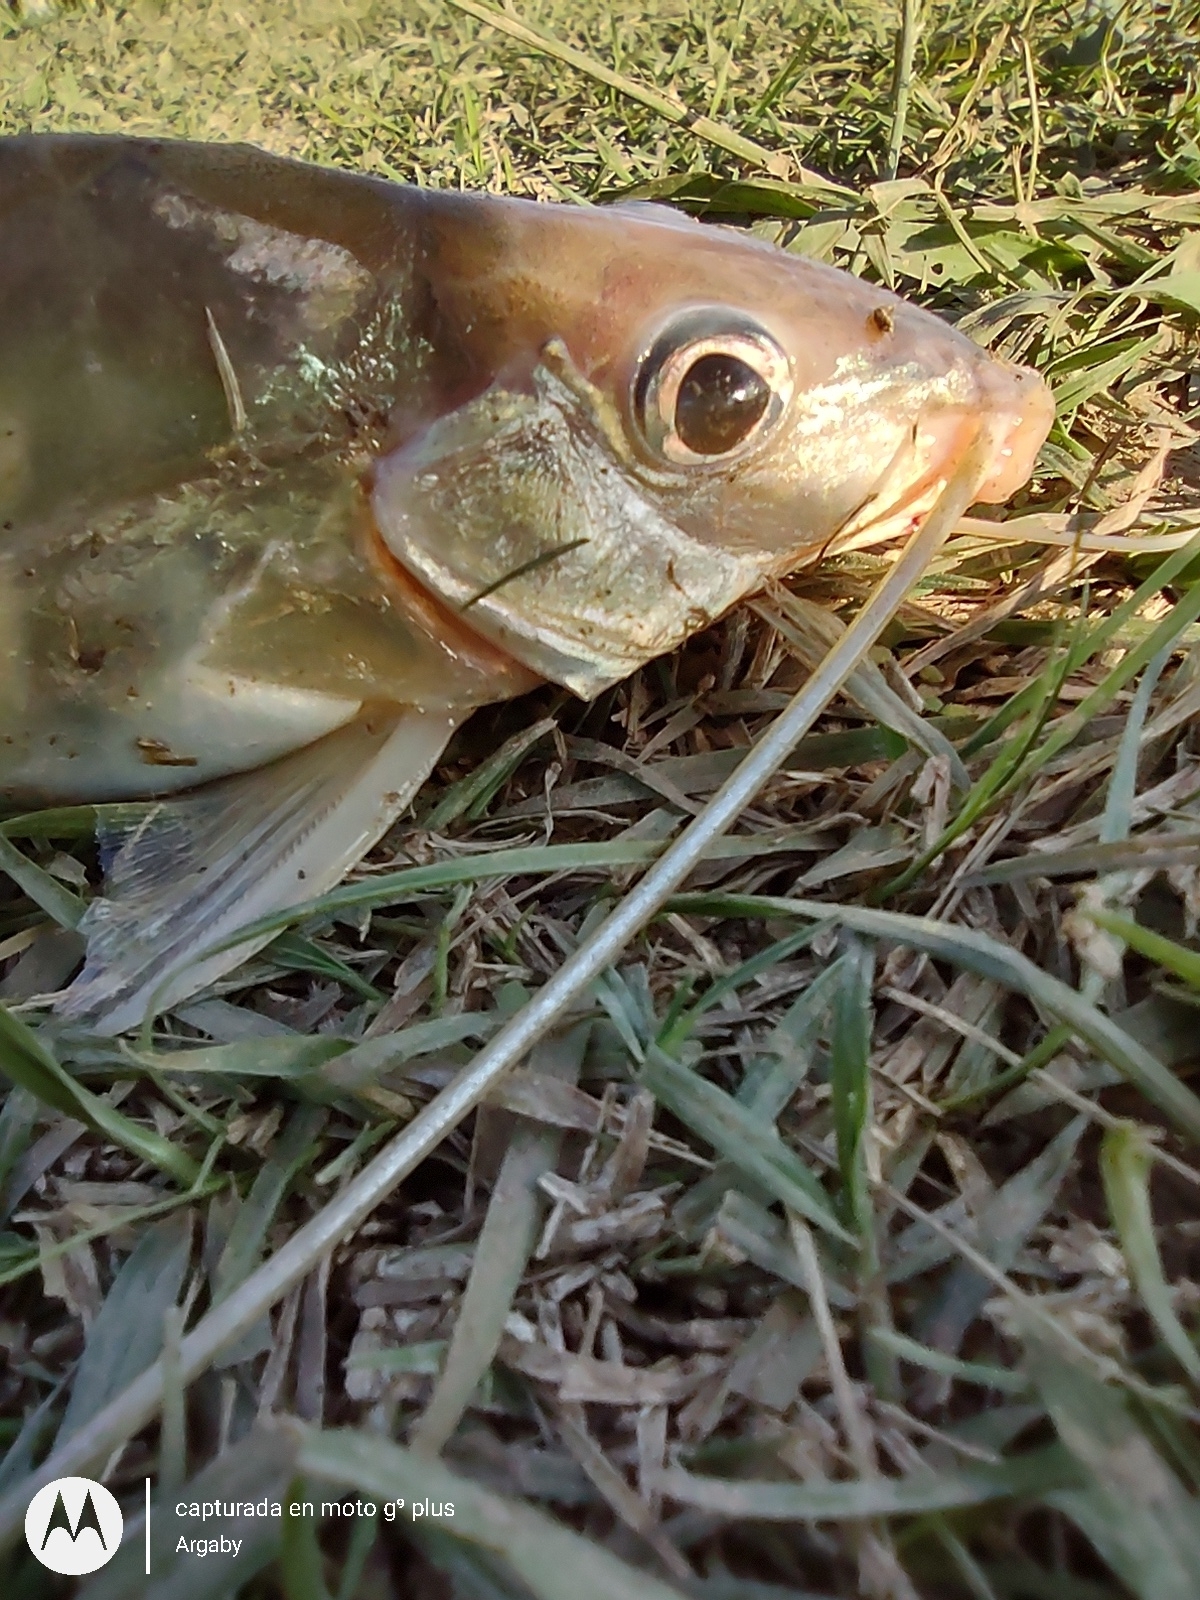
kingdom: Animalia
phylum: Chordata
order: Siluriformes
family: Pimelodidae
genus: Iheringichthys
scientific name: Iheringichthys labrosus
